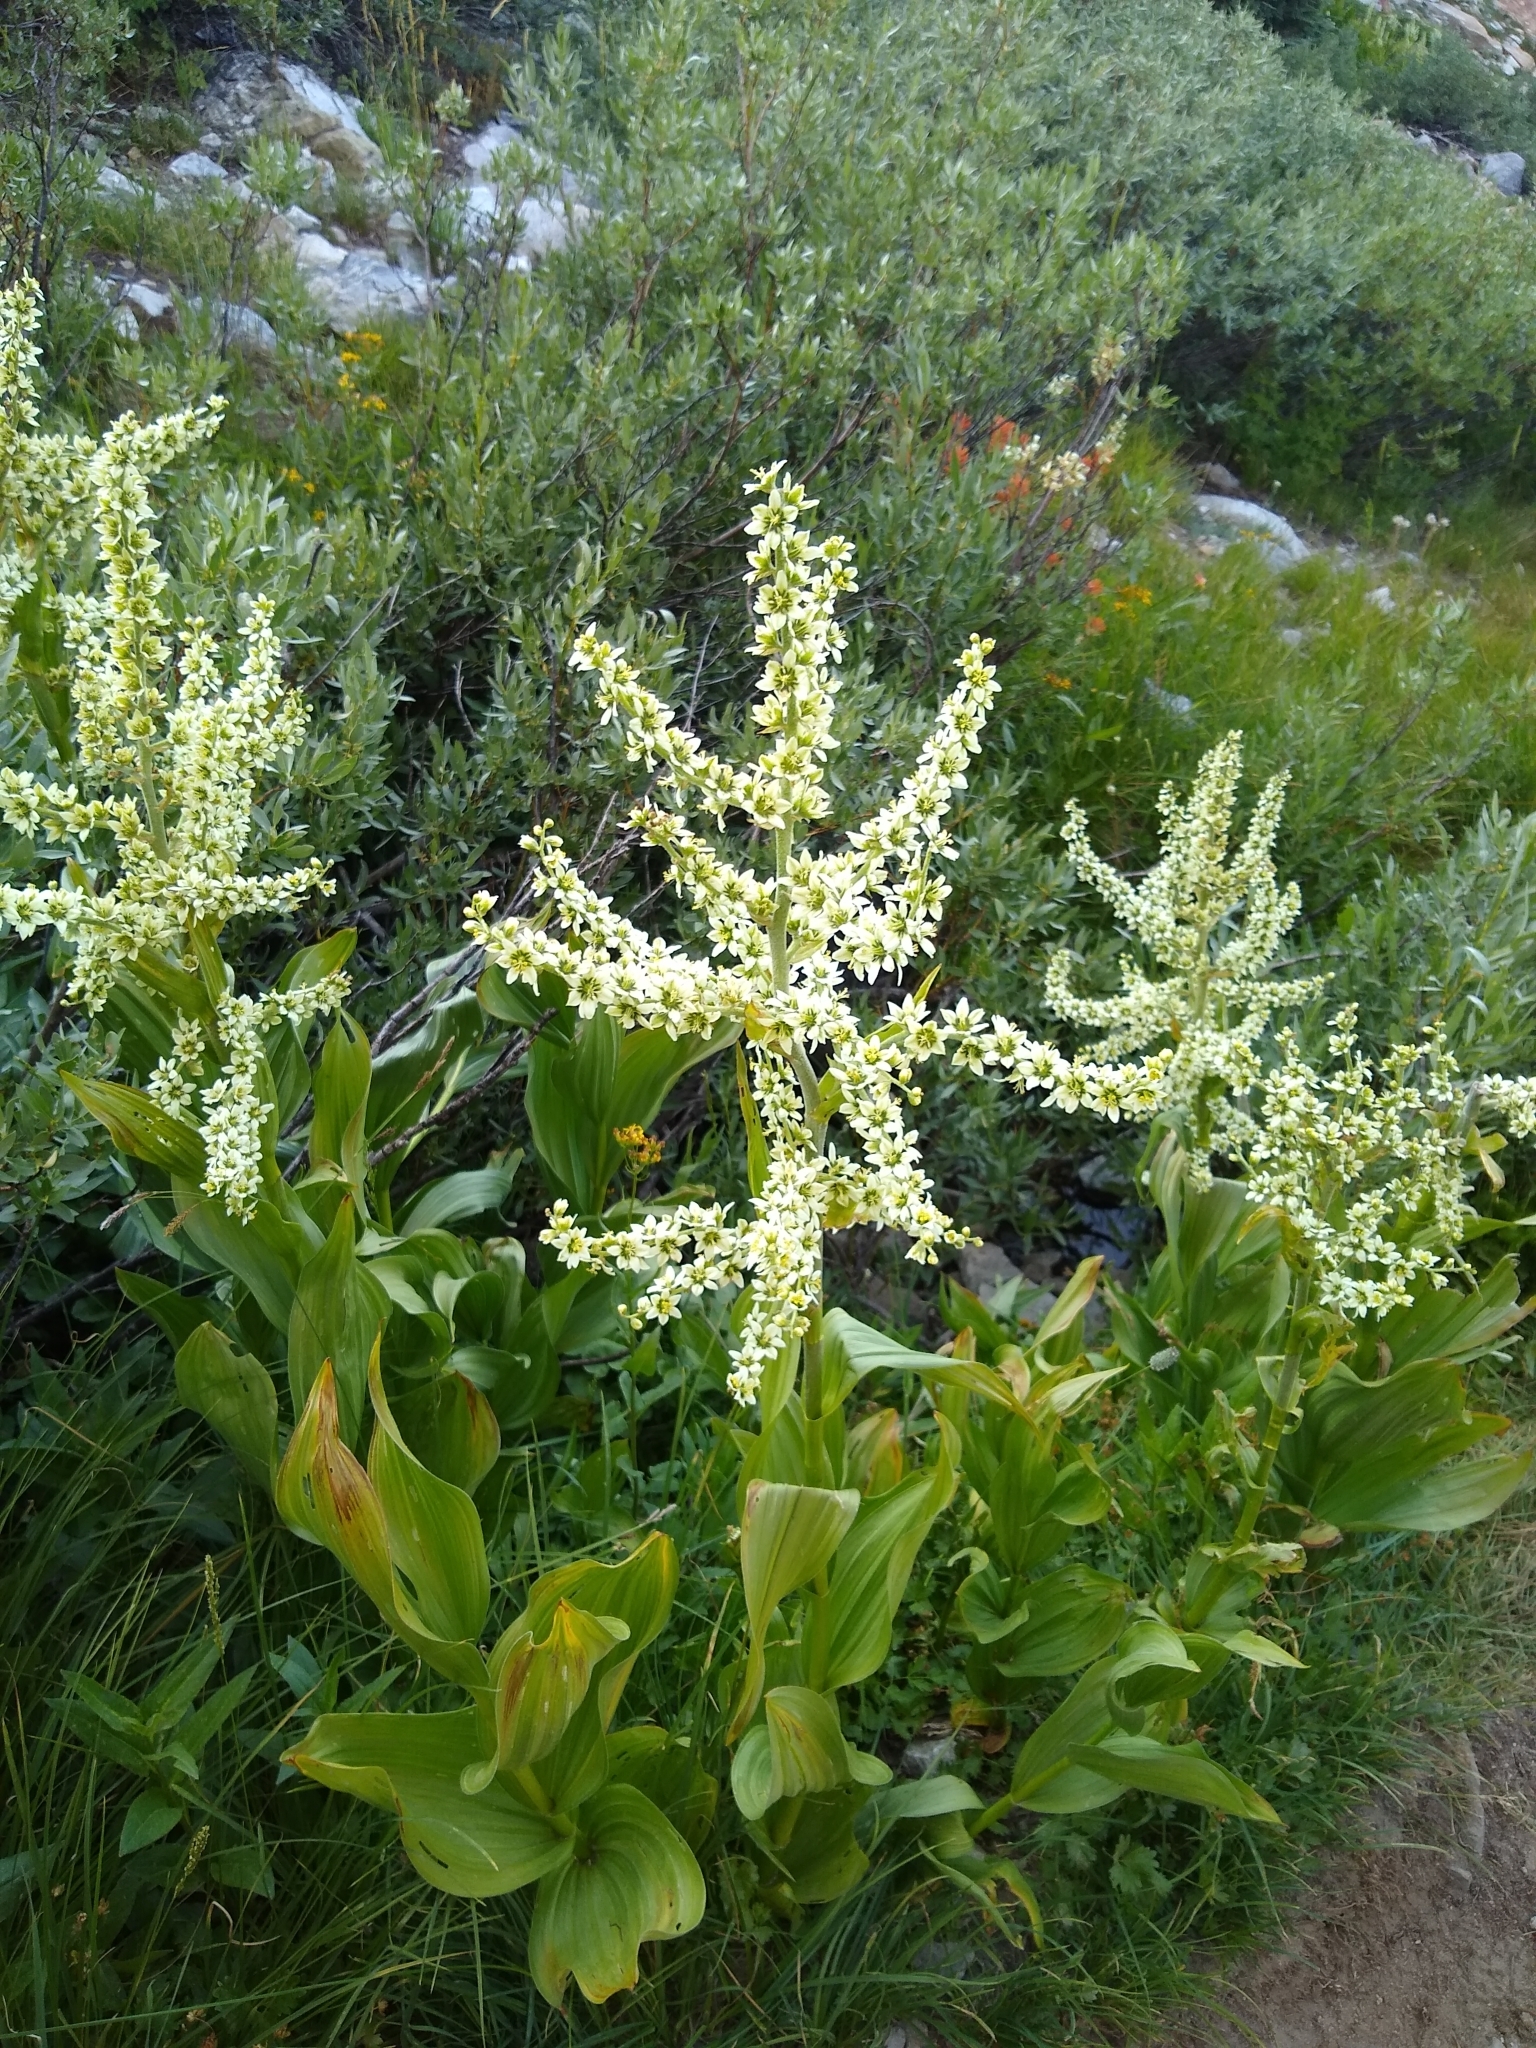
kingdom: Plantae
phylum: Tracheophyta
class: Liliopsida
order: Liliales
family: Melanthiaceae
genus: Veratrum
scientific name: Veratrum californicum
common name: California veratrum
